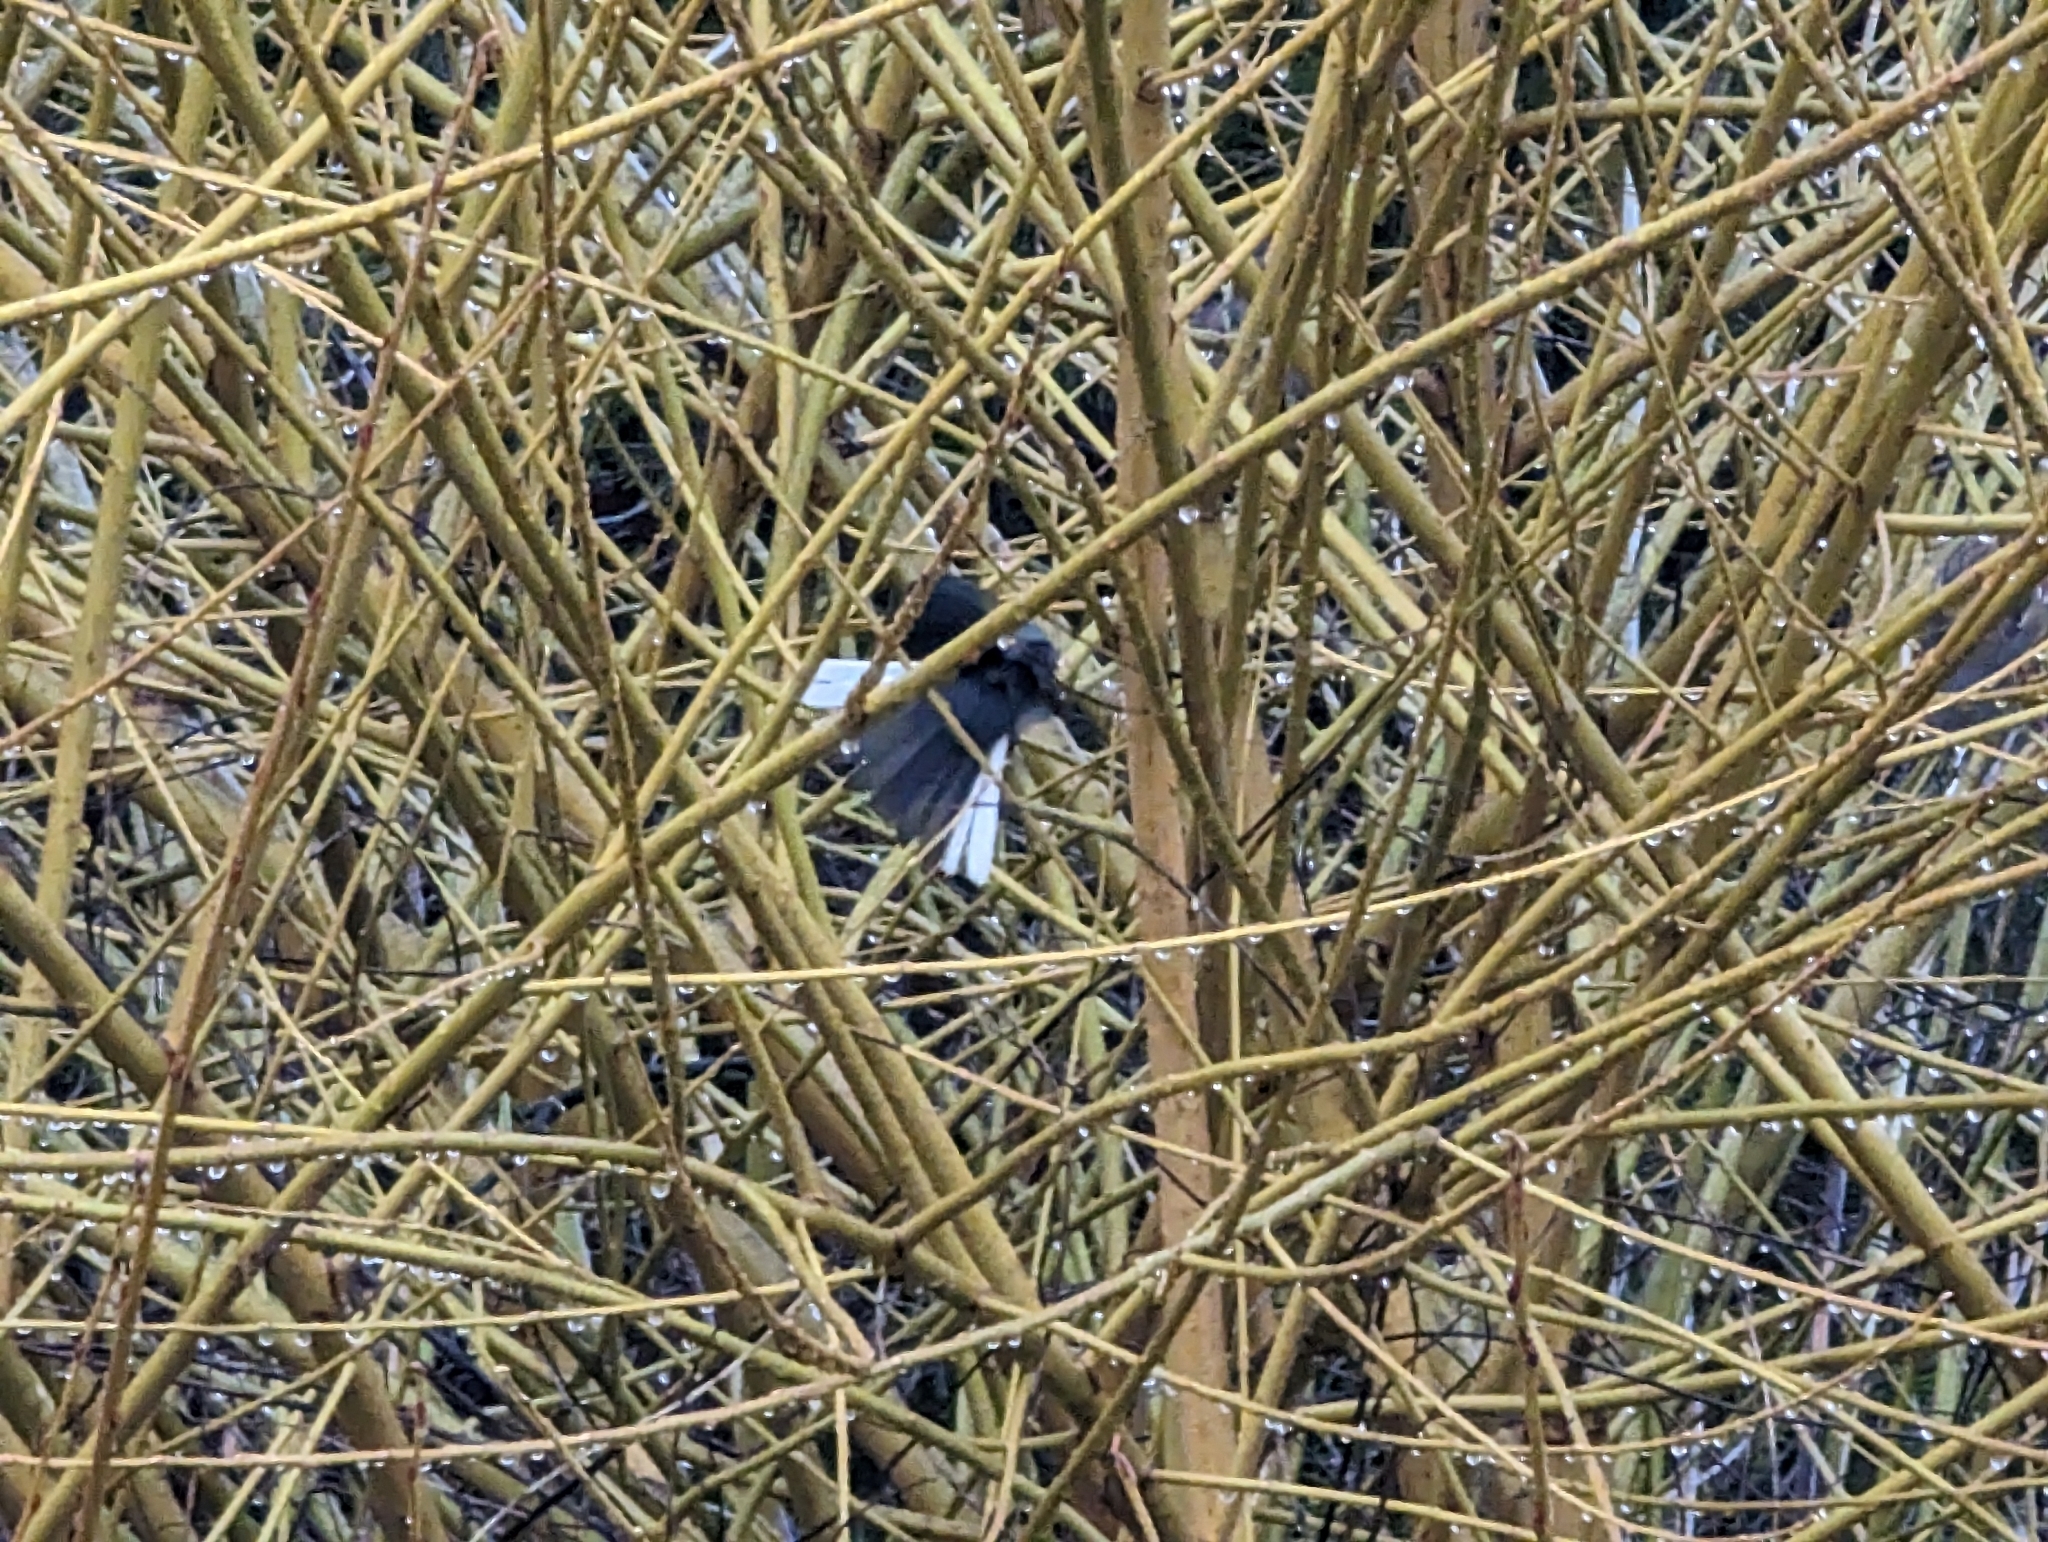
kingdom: Animalia
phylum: Chordata
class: Aves
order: Passeriformes
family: Passerellidae
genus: Junco
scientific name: Junco hyemalis
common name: Dark-eyed junco
